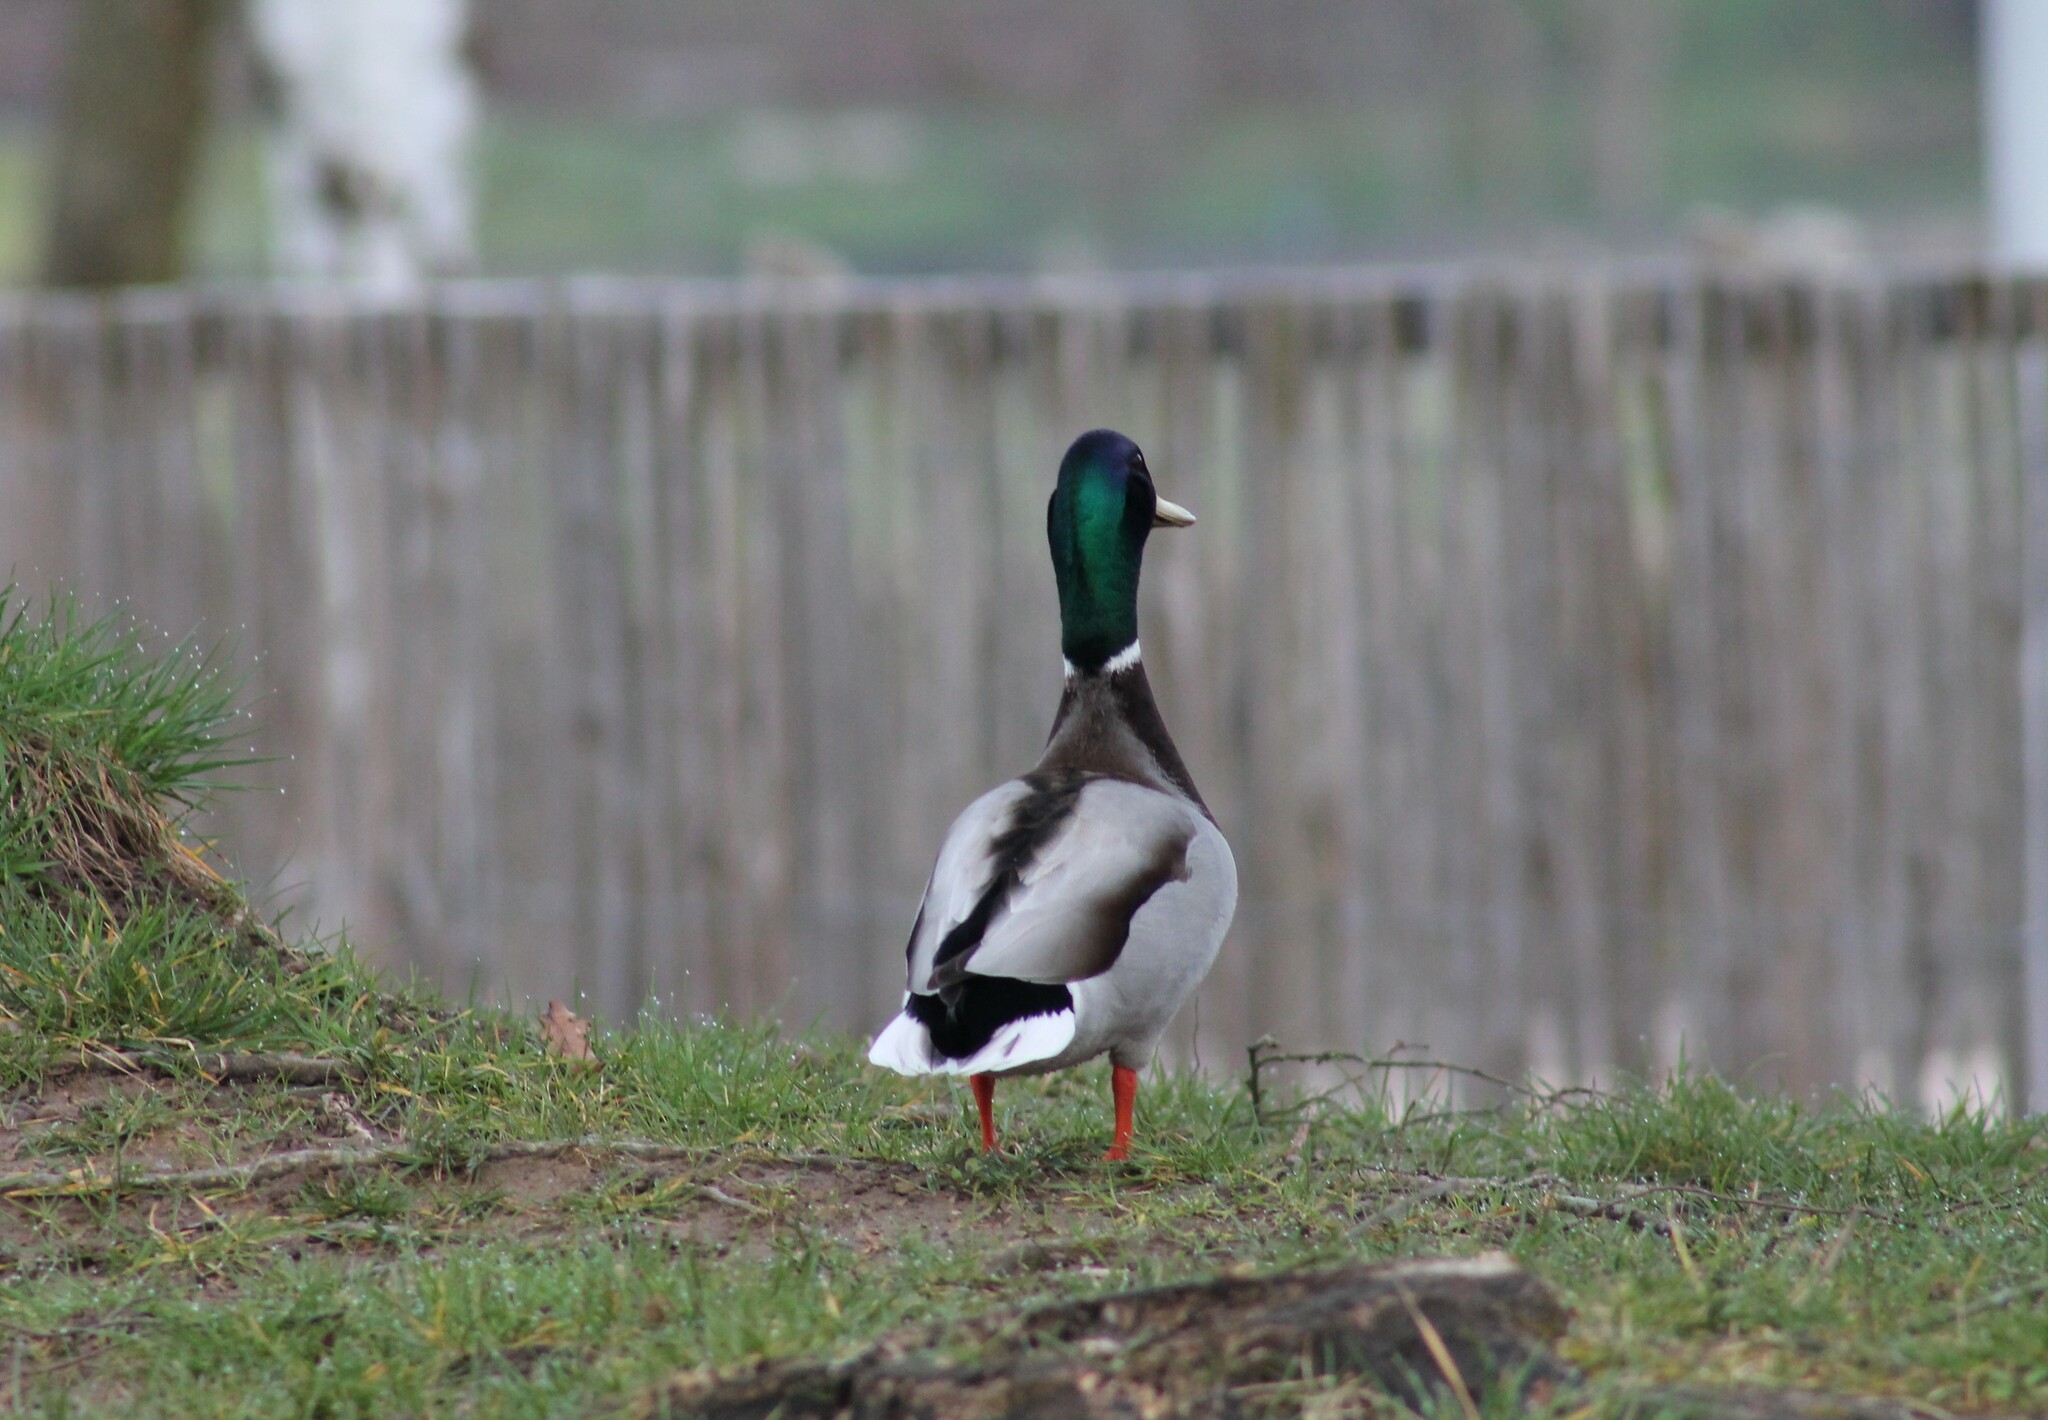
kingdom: Animalia
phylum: Chordata
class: Aves
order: Anseriformes
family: Anatidae
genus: Anas
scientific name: Anas platyrhynchos
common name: Mallard
